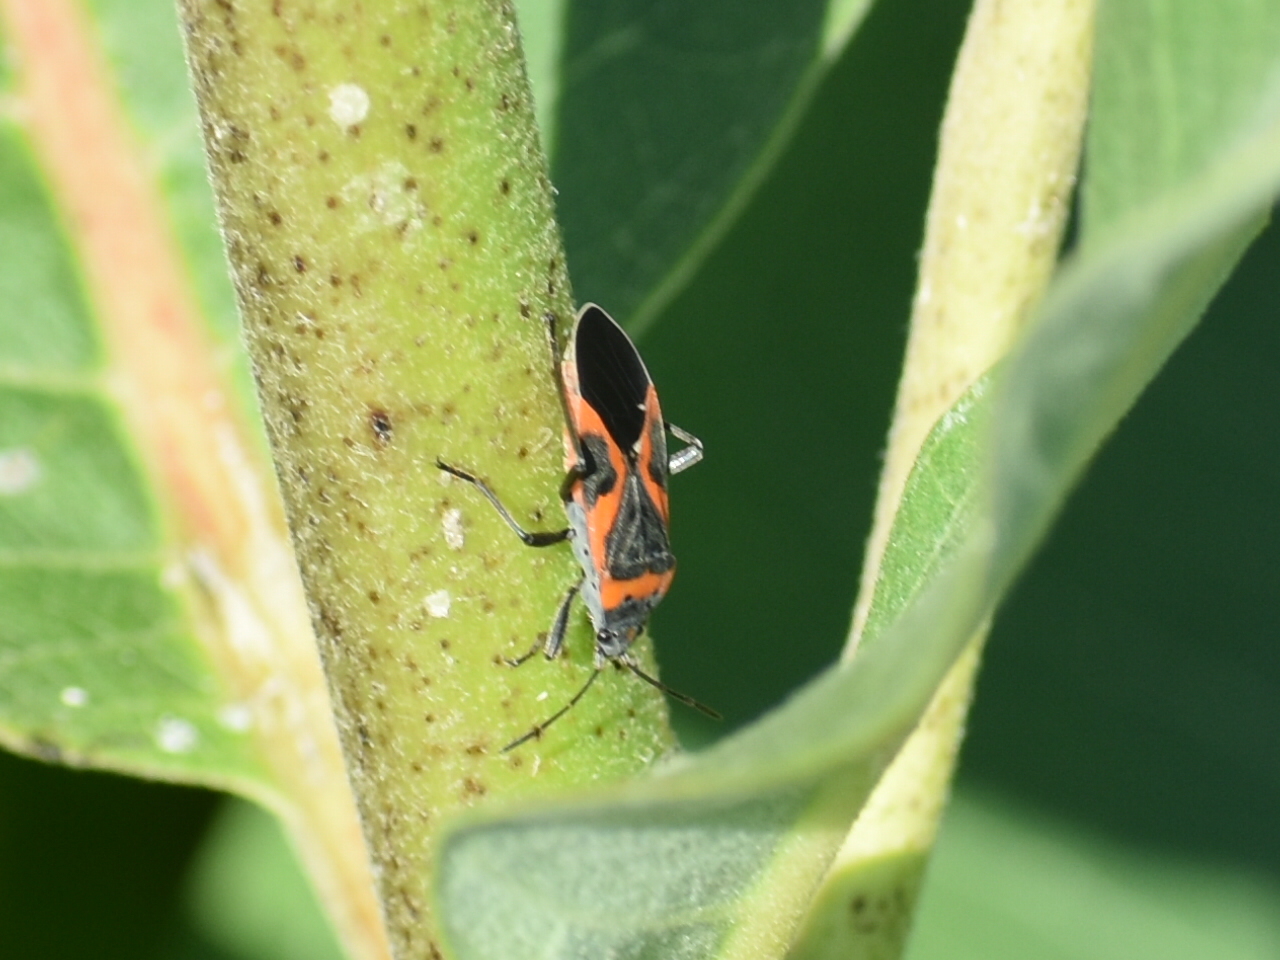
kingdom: Animalia
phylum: Arthropoda
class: Insecta
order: Hemiptera
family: Lygaeidae
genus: Lygaeus
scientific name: Lygaeus kalmii
